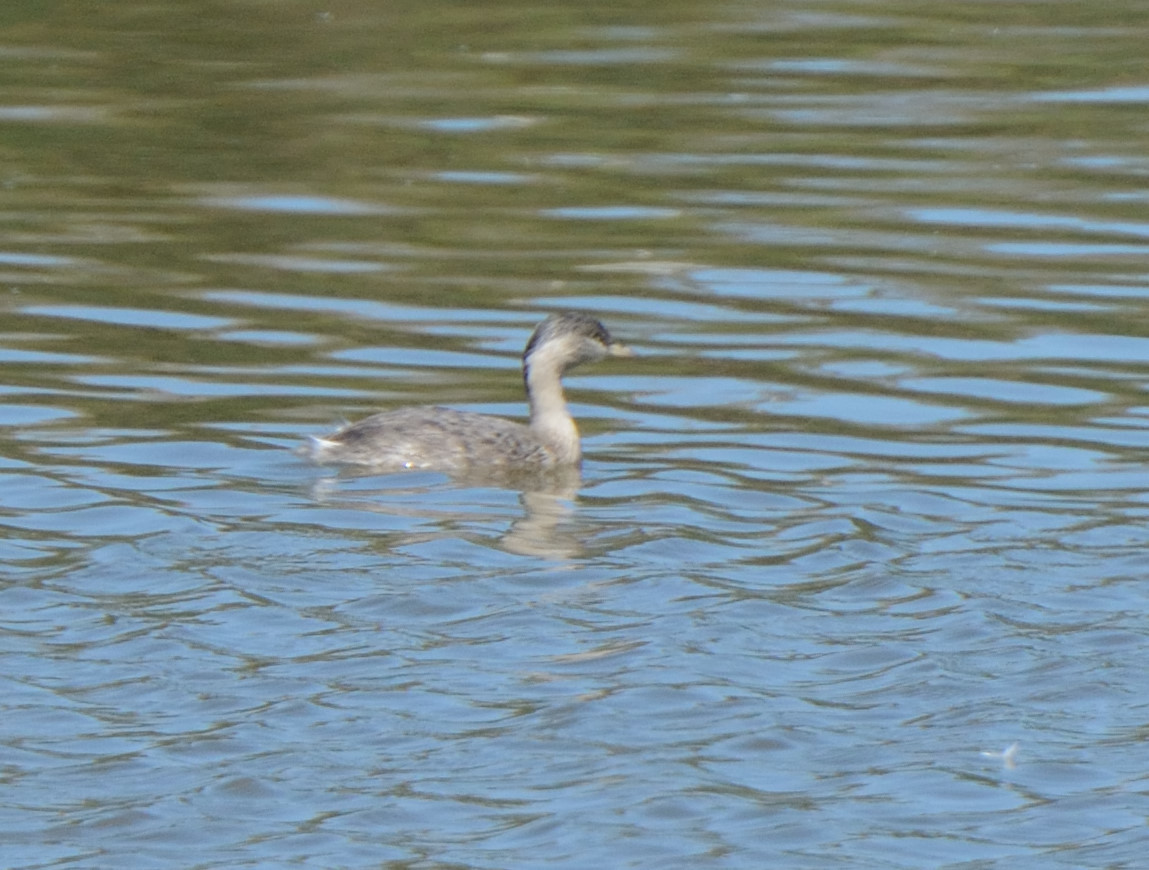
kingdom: Animalia
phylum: Chordata
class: Aves
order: Podicipediformes
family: Podicipedidae
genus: Poliocephalus
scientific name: Poliocephalus poliocephalus
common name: Hoary-headed grebe
